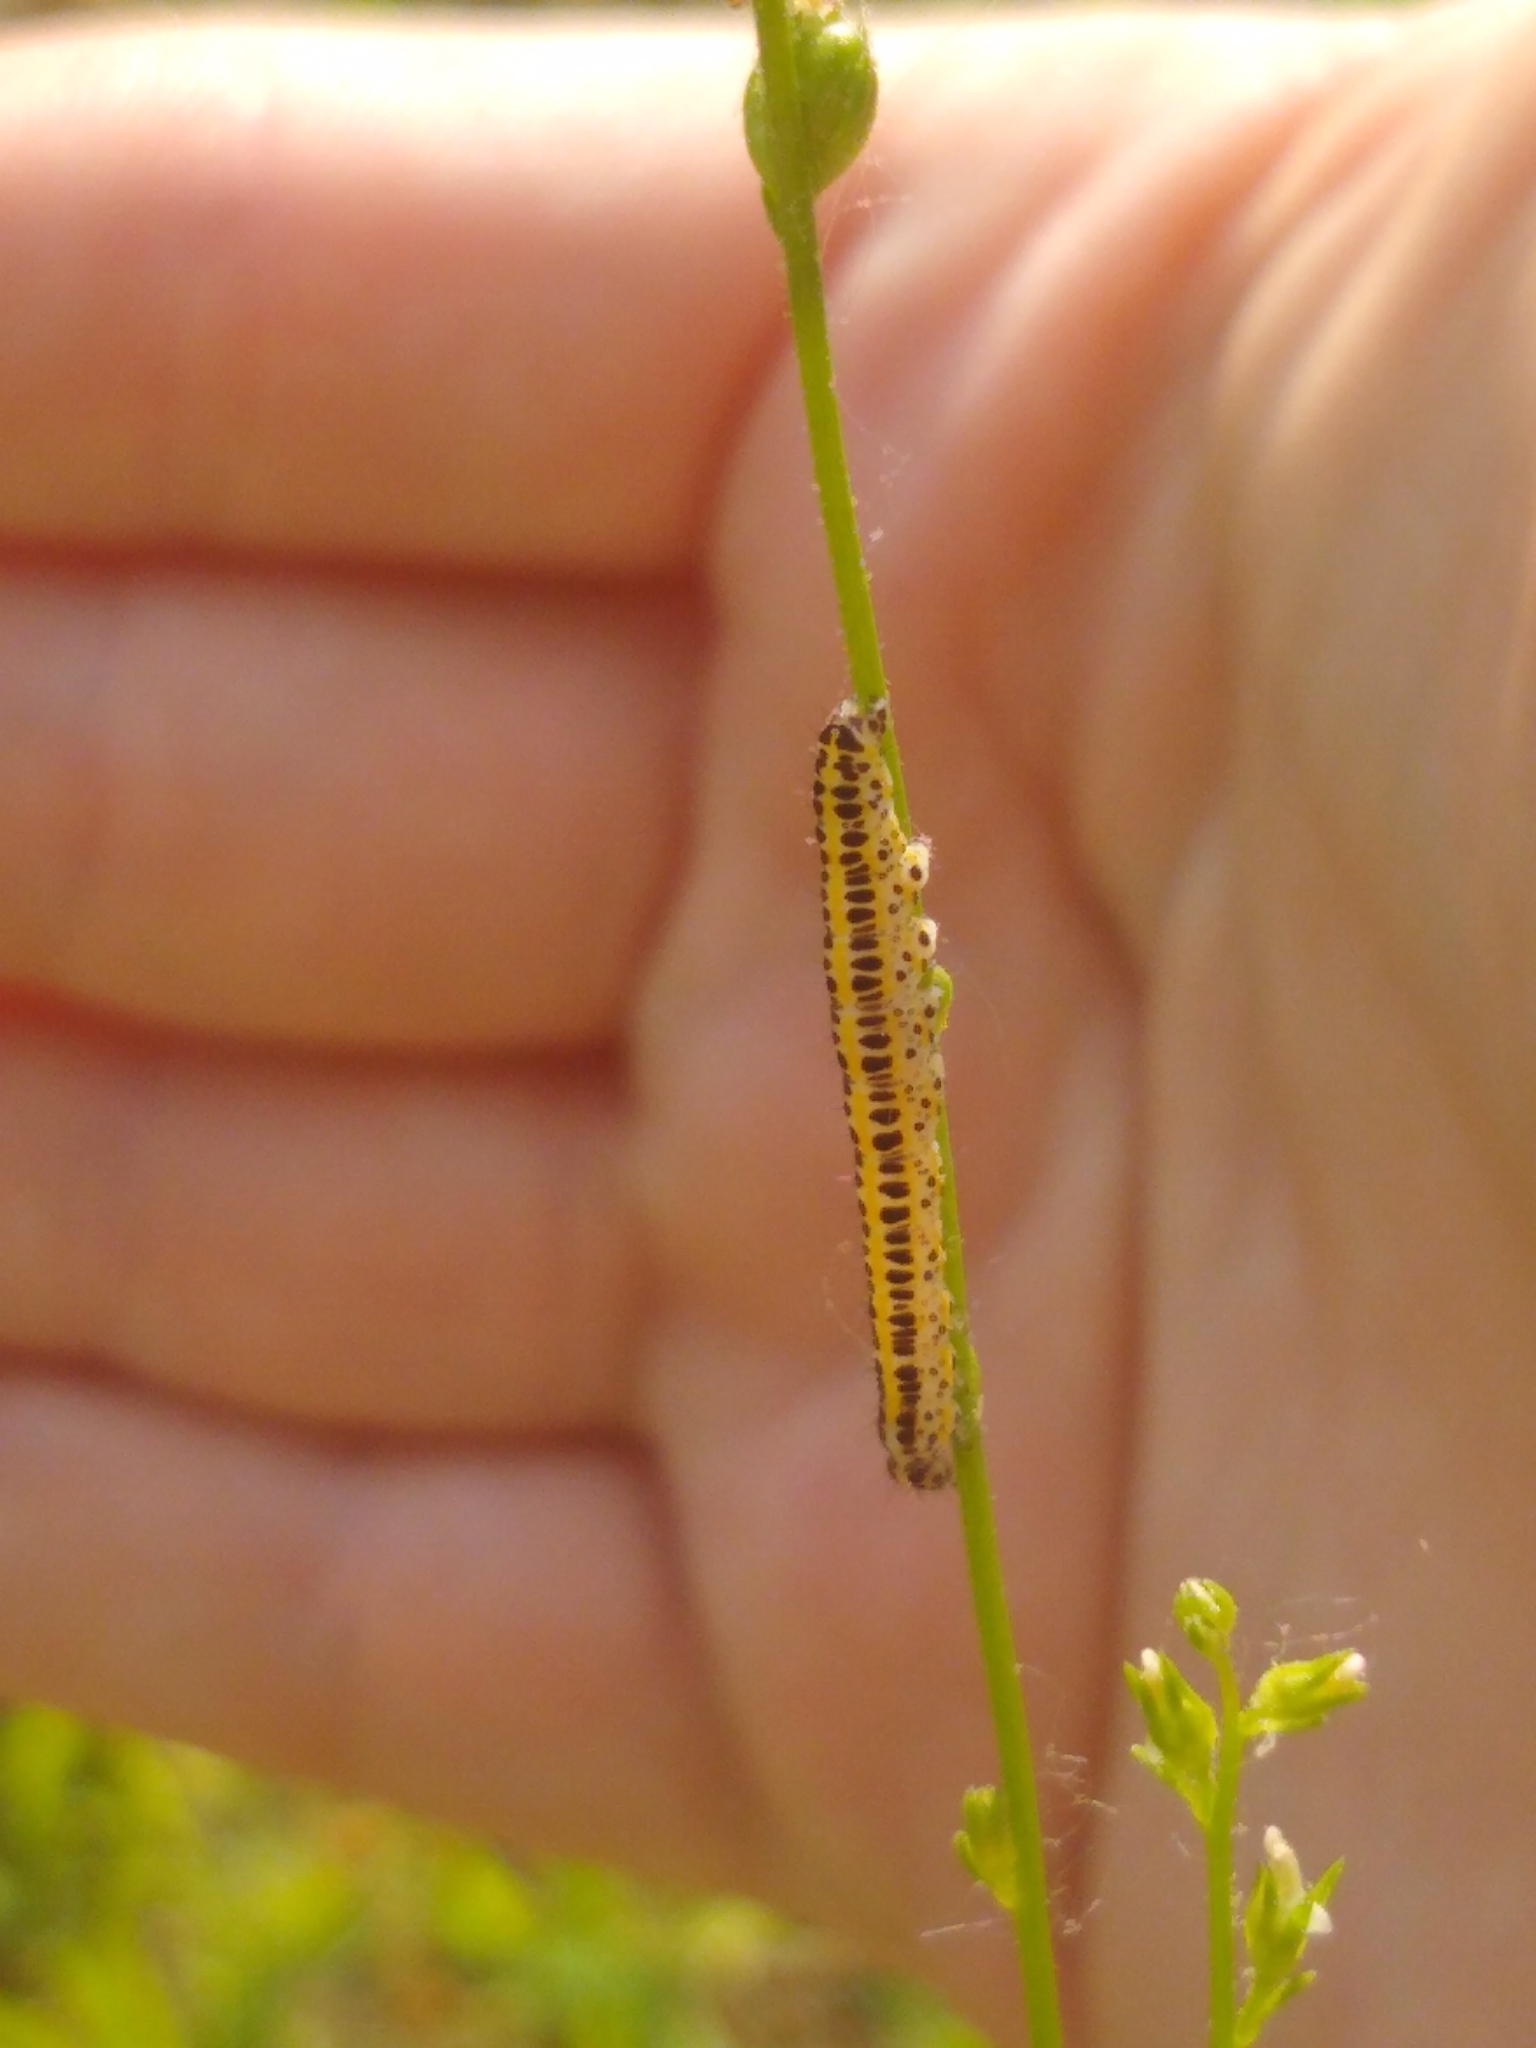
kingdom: Animalia
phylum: Arthropoda
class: Insecta
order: Lepidoptera
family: Noctuidae
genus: Calophasia
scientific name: Calophasia lunula
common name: Toadflax brocade
